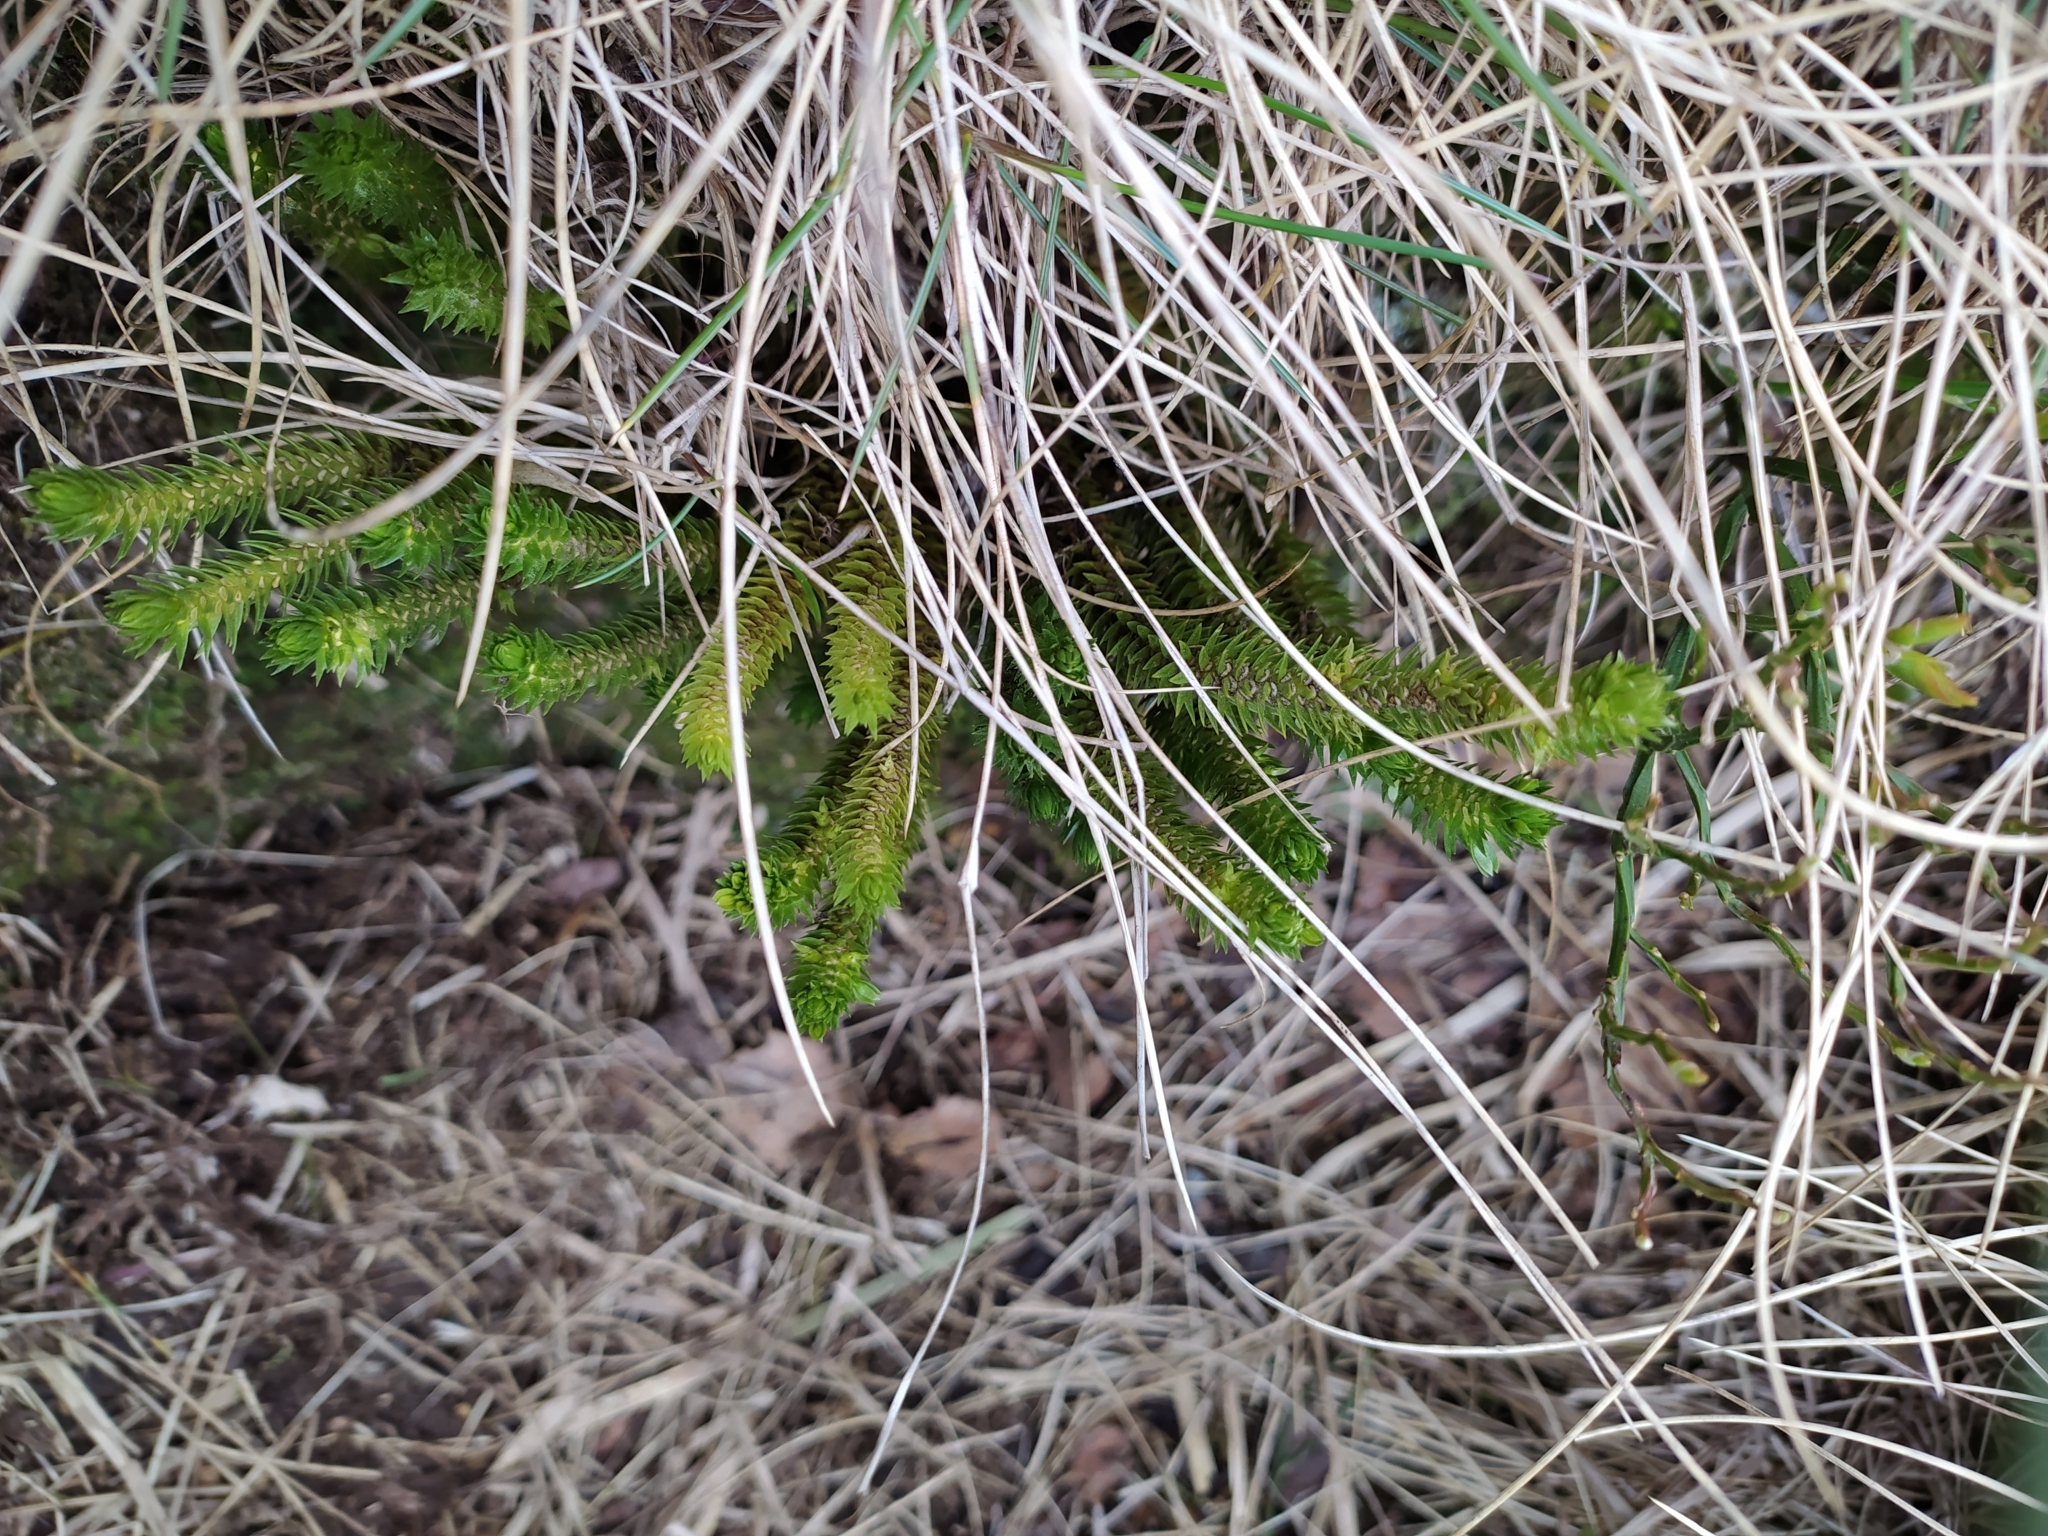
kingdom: Plantae
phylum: Tracheophyta
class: Lycopodiopsida
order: Lycopodiales
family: Lycopodiaceae
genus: Huperzia
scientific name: Huperzia selago
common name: Northern firmoss
